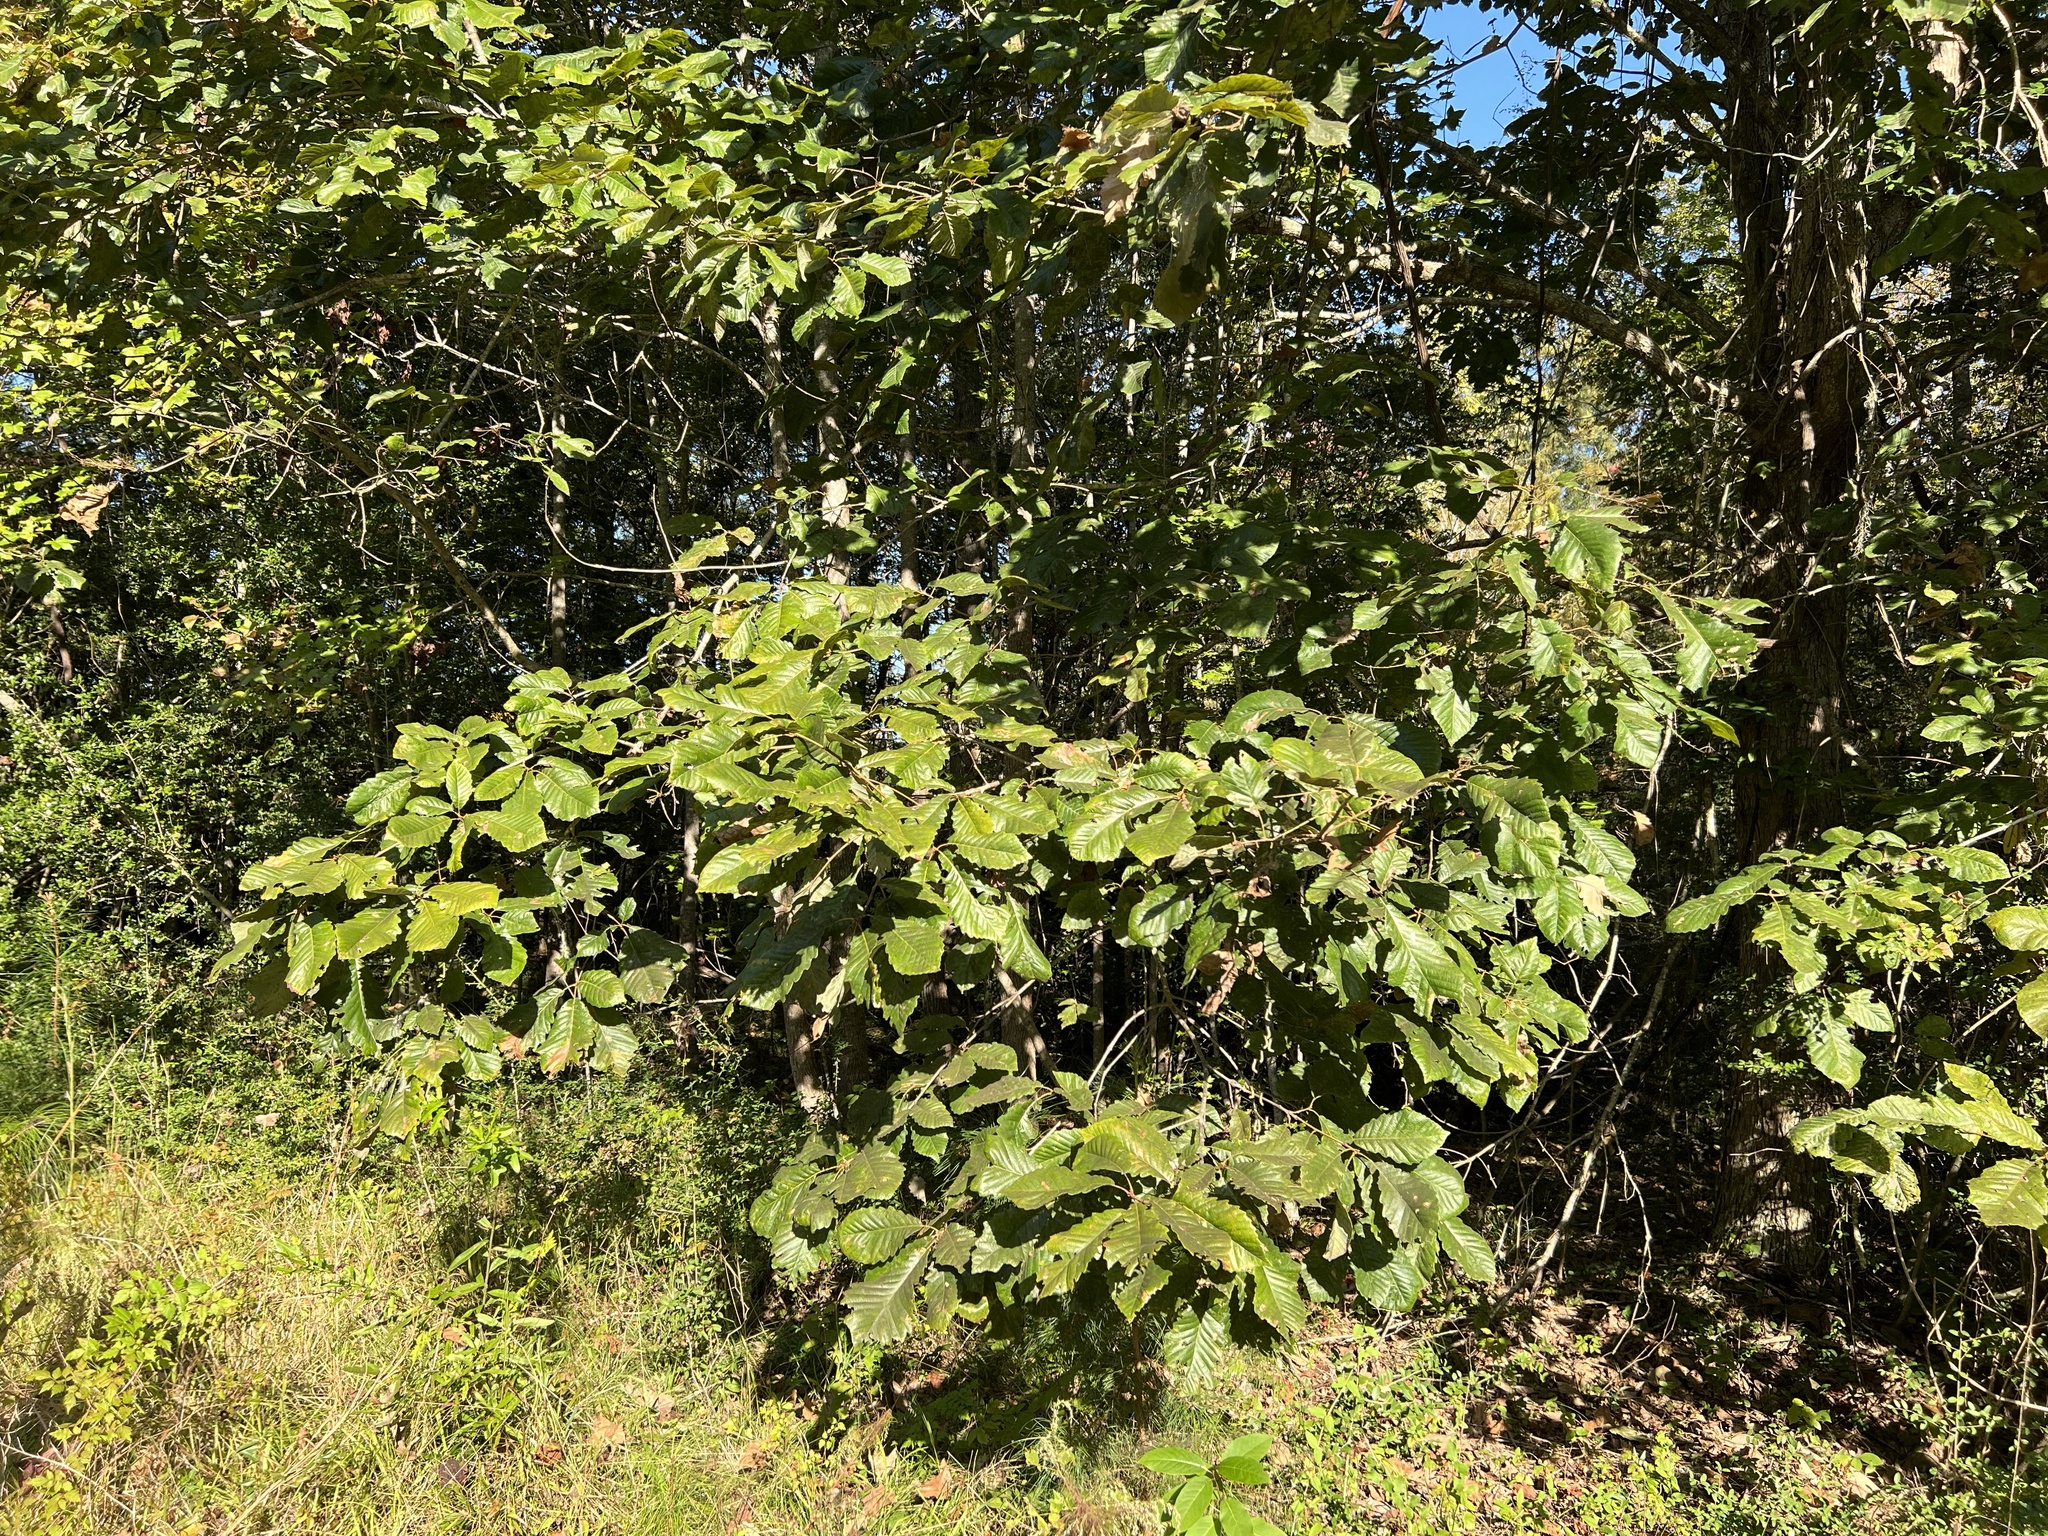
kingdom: Plantae
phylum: Tracheophyta
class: Magnoliopsida
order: Fagales
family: Fagaceae
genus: Quercus
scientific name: Quercus michauxii
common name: Swamp chestnut oak
